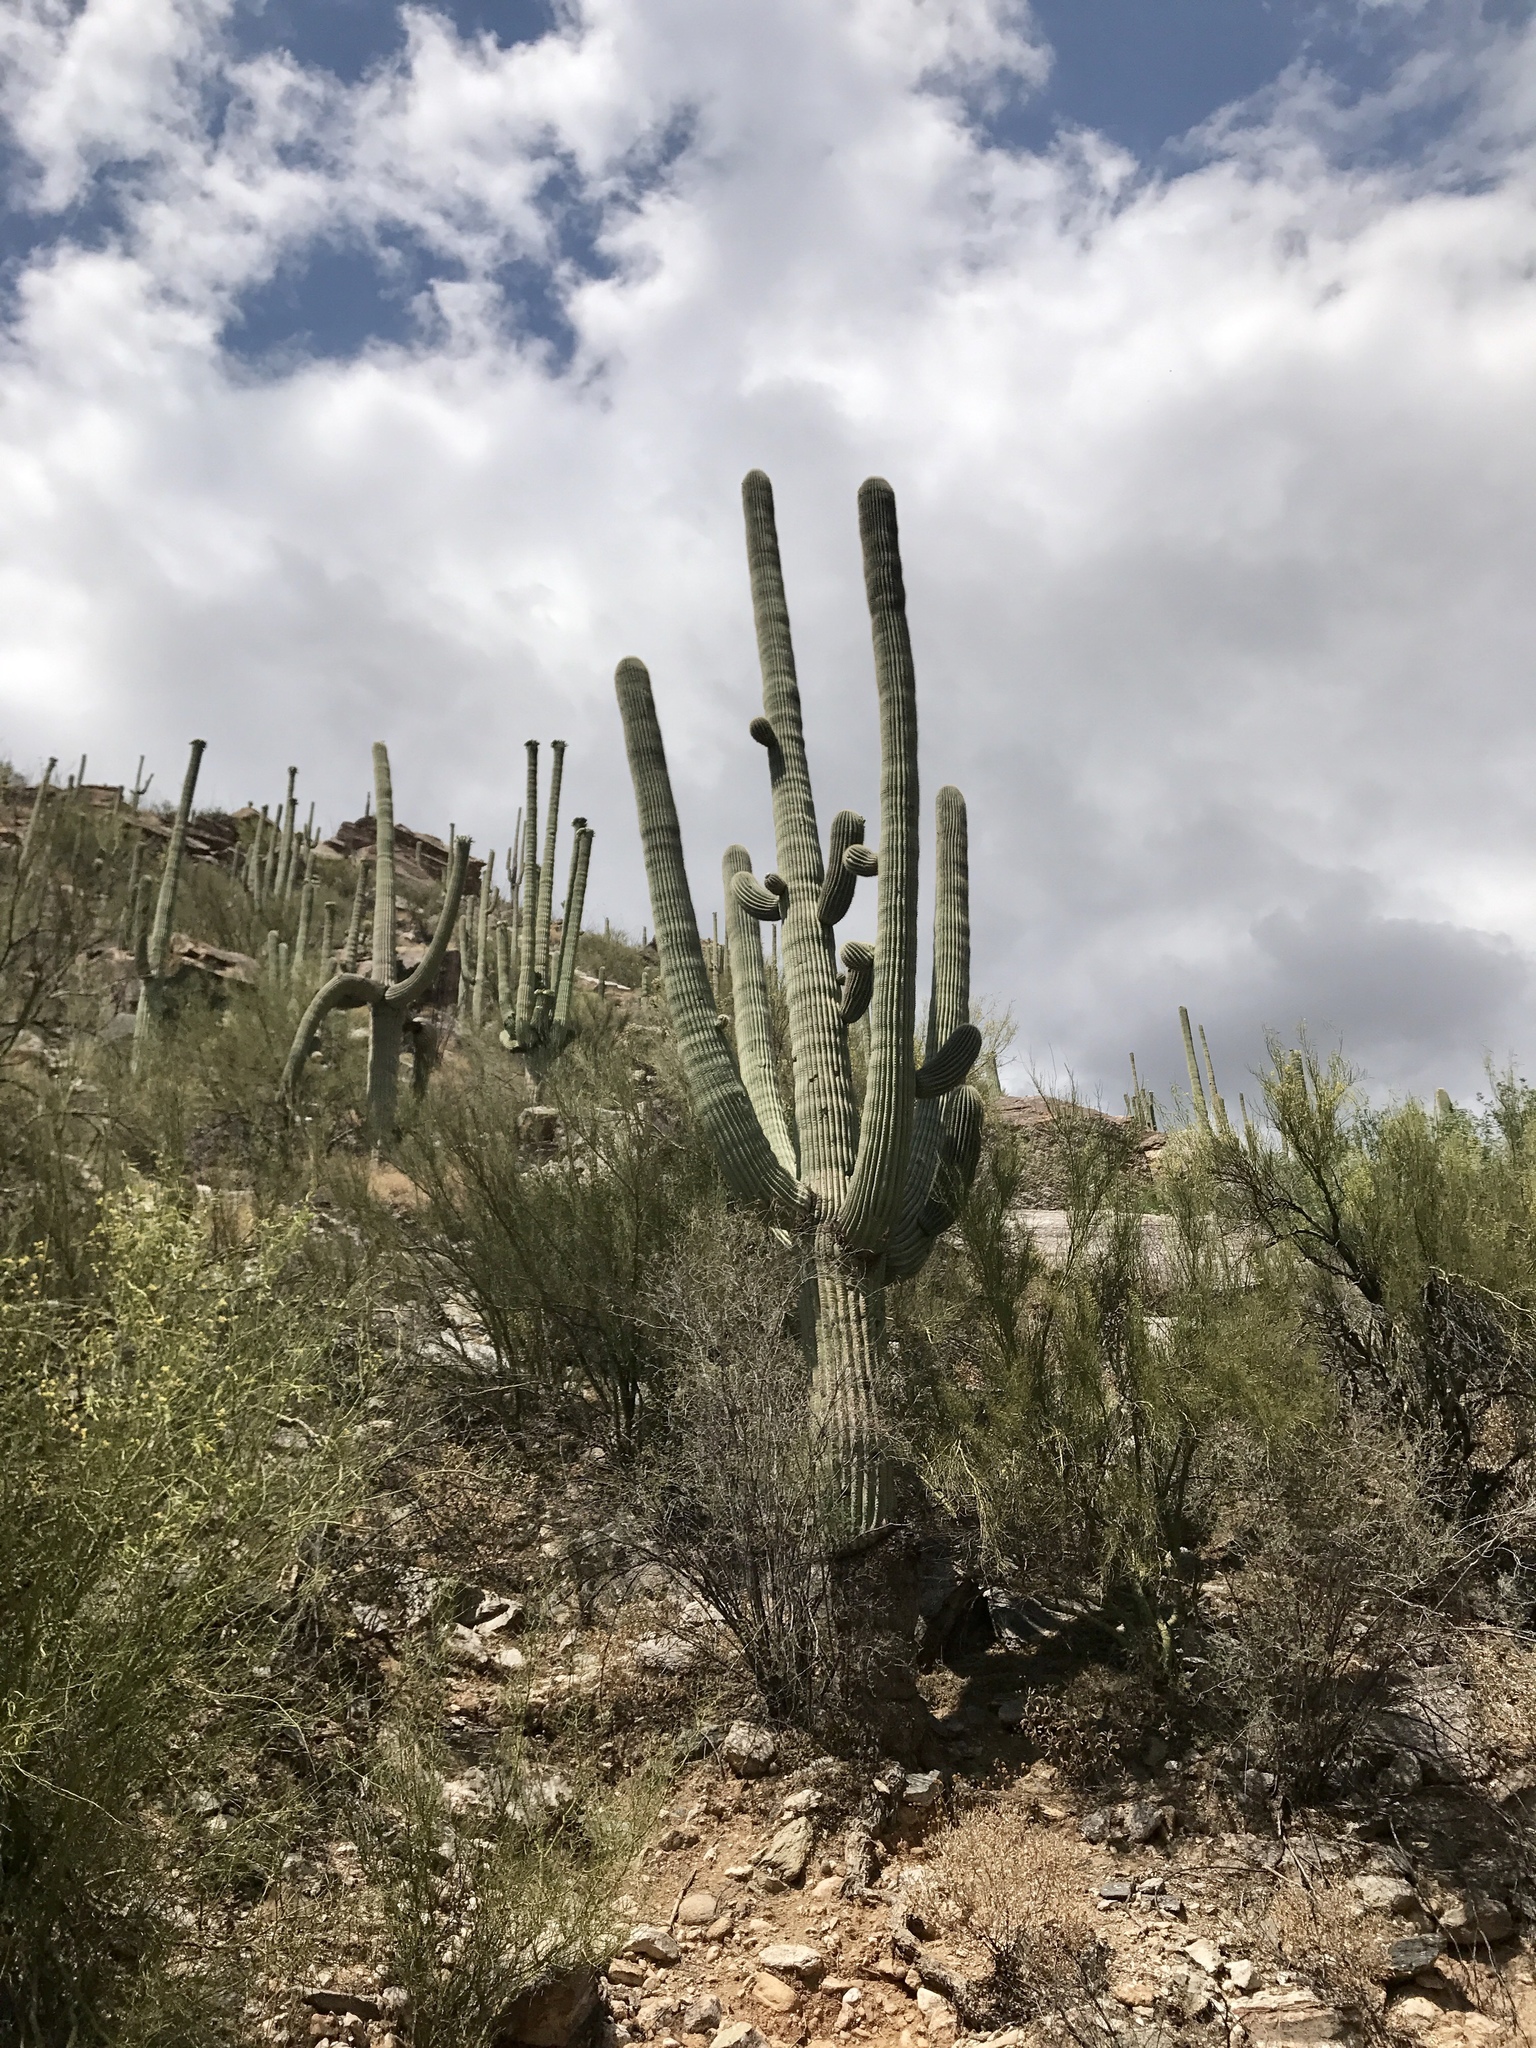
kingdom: Plantae
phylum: Tracheophyta
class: Magnoliopsida
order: Caryophyllales
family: Cactaceae
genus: Carnegiea
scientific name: Carnegiea gigantea
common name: Saguaro
